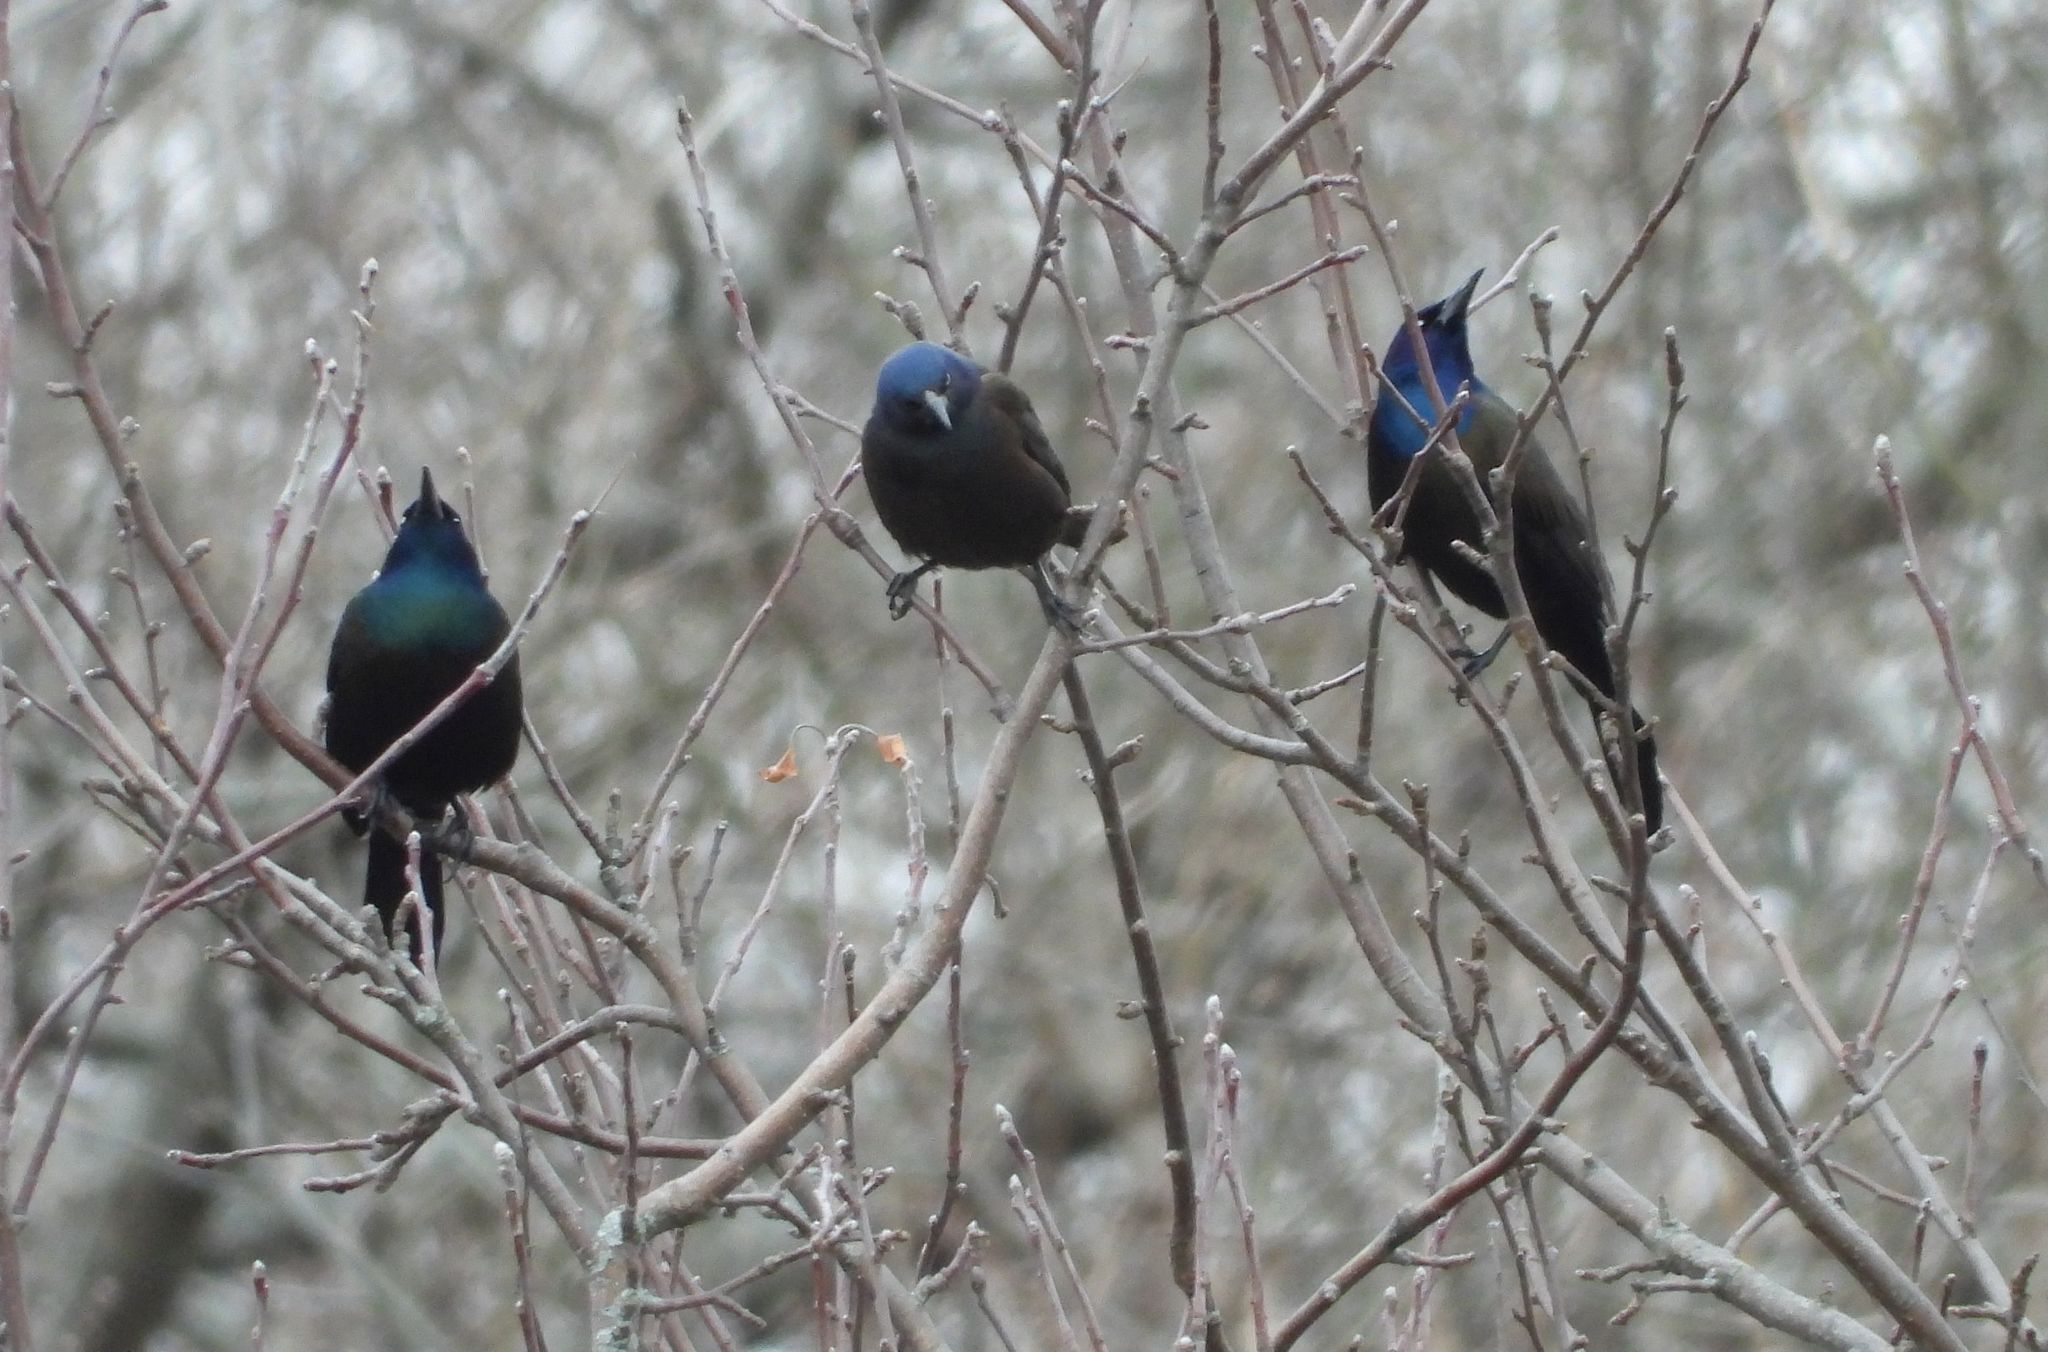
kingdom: Animalia
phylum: Chordata
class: Aves
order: Passeriformes
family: Icteridae
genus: Quiscalus
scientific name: Quiscalus quiscula
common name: Common grackle
